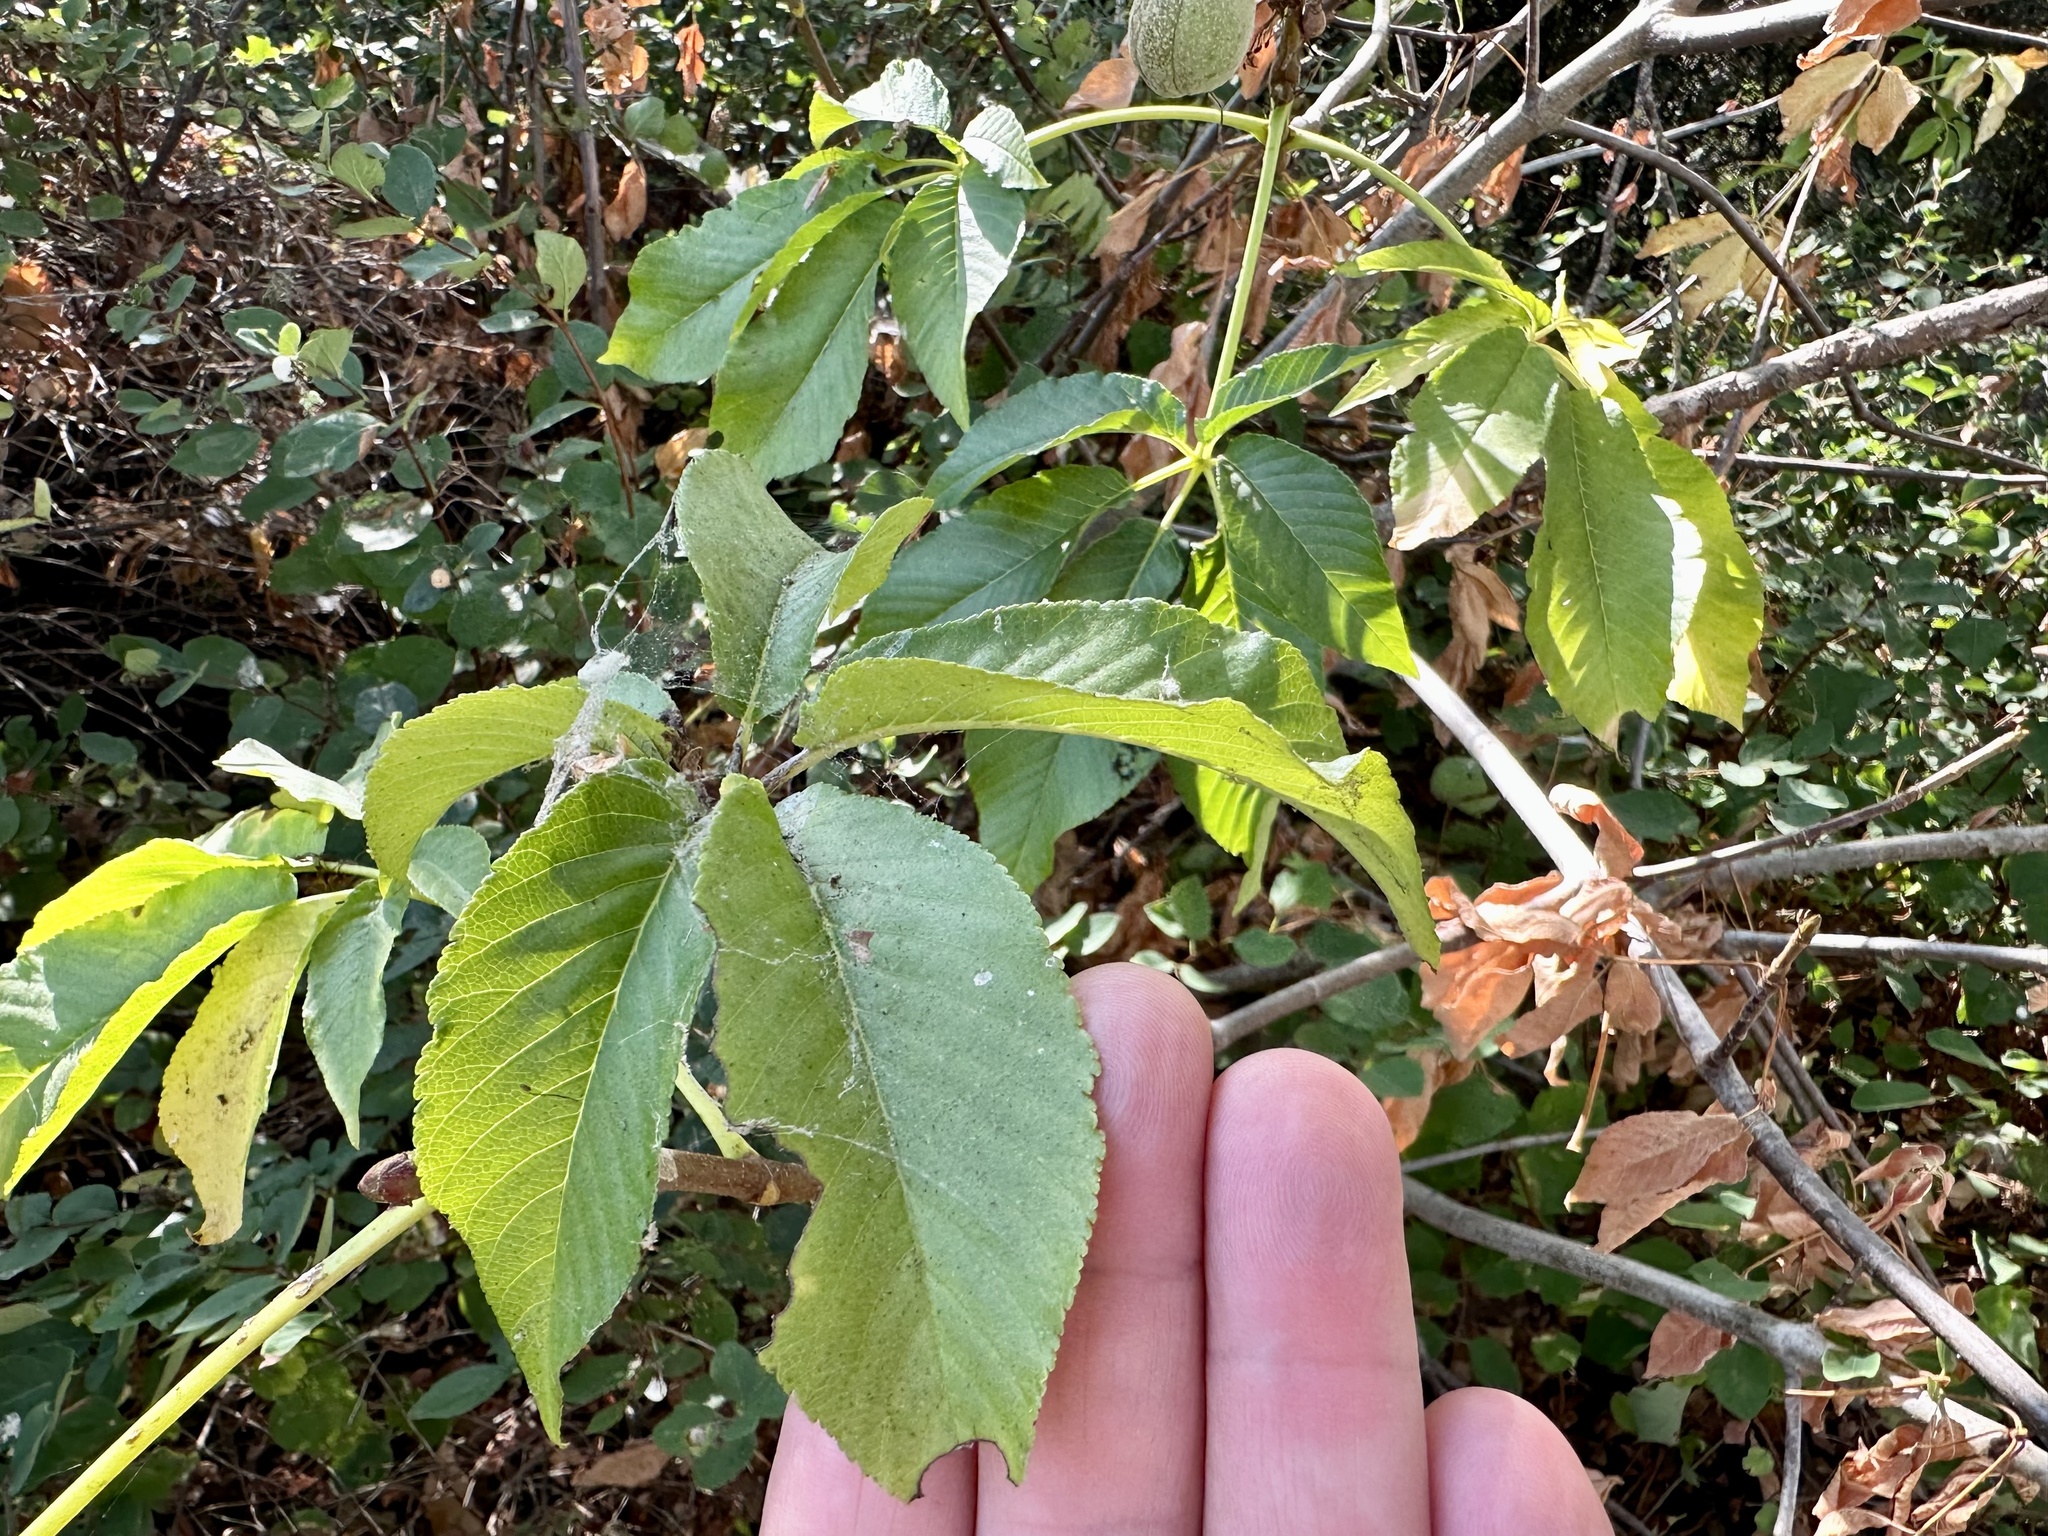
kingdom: Plantae
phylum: Tracheophyta
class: Magnoliopsida
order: Sapindales
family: Sapindaceae
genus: Aesculus
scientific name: Aesculus californica
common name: California buckeye
